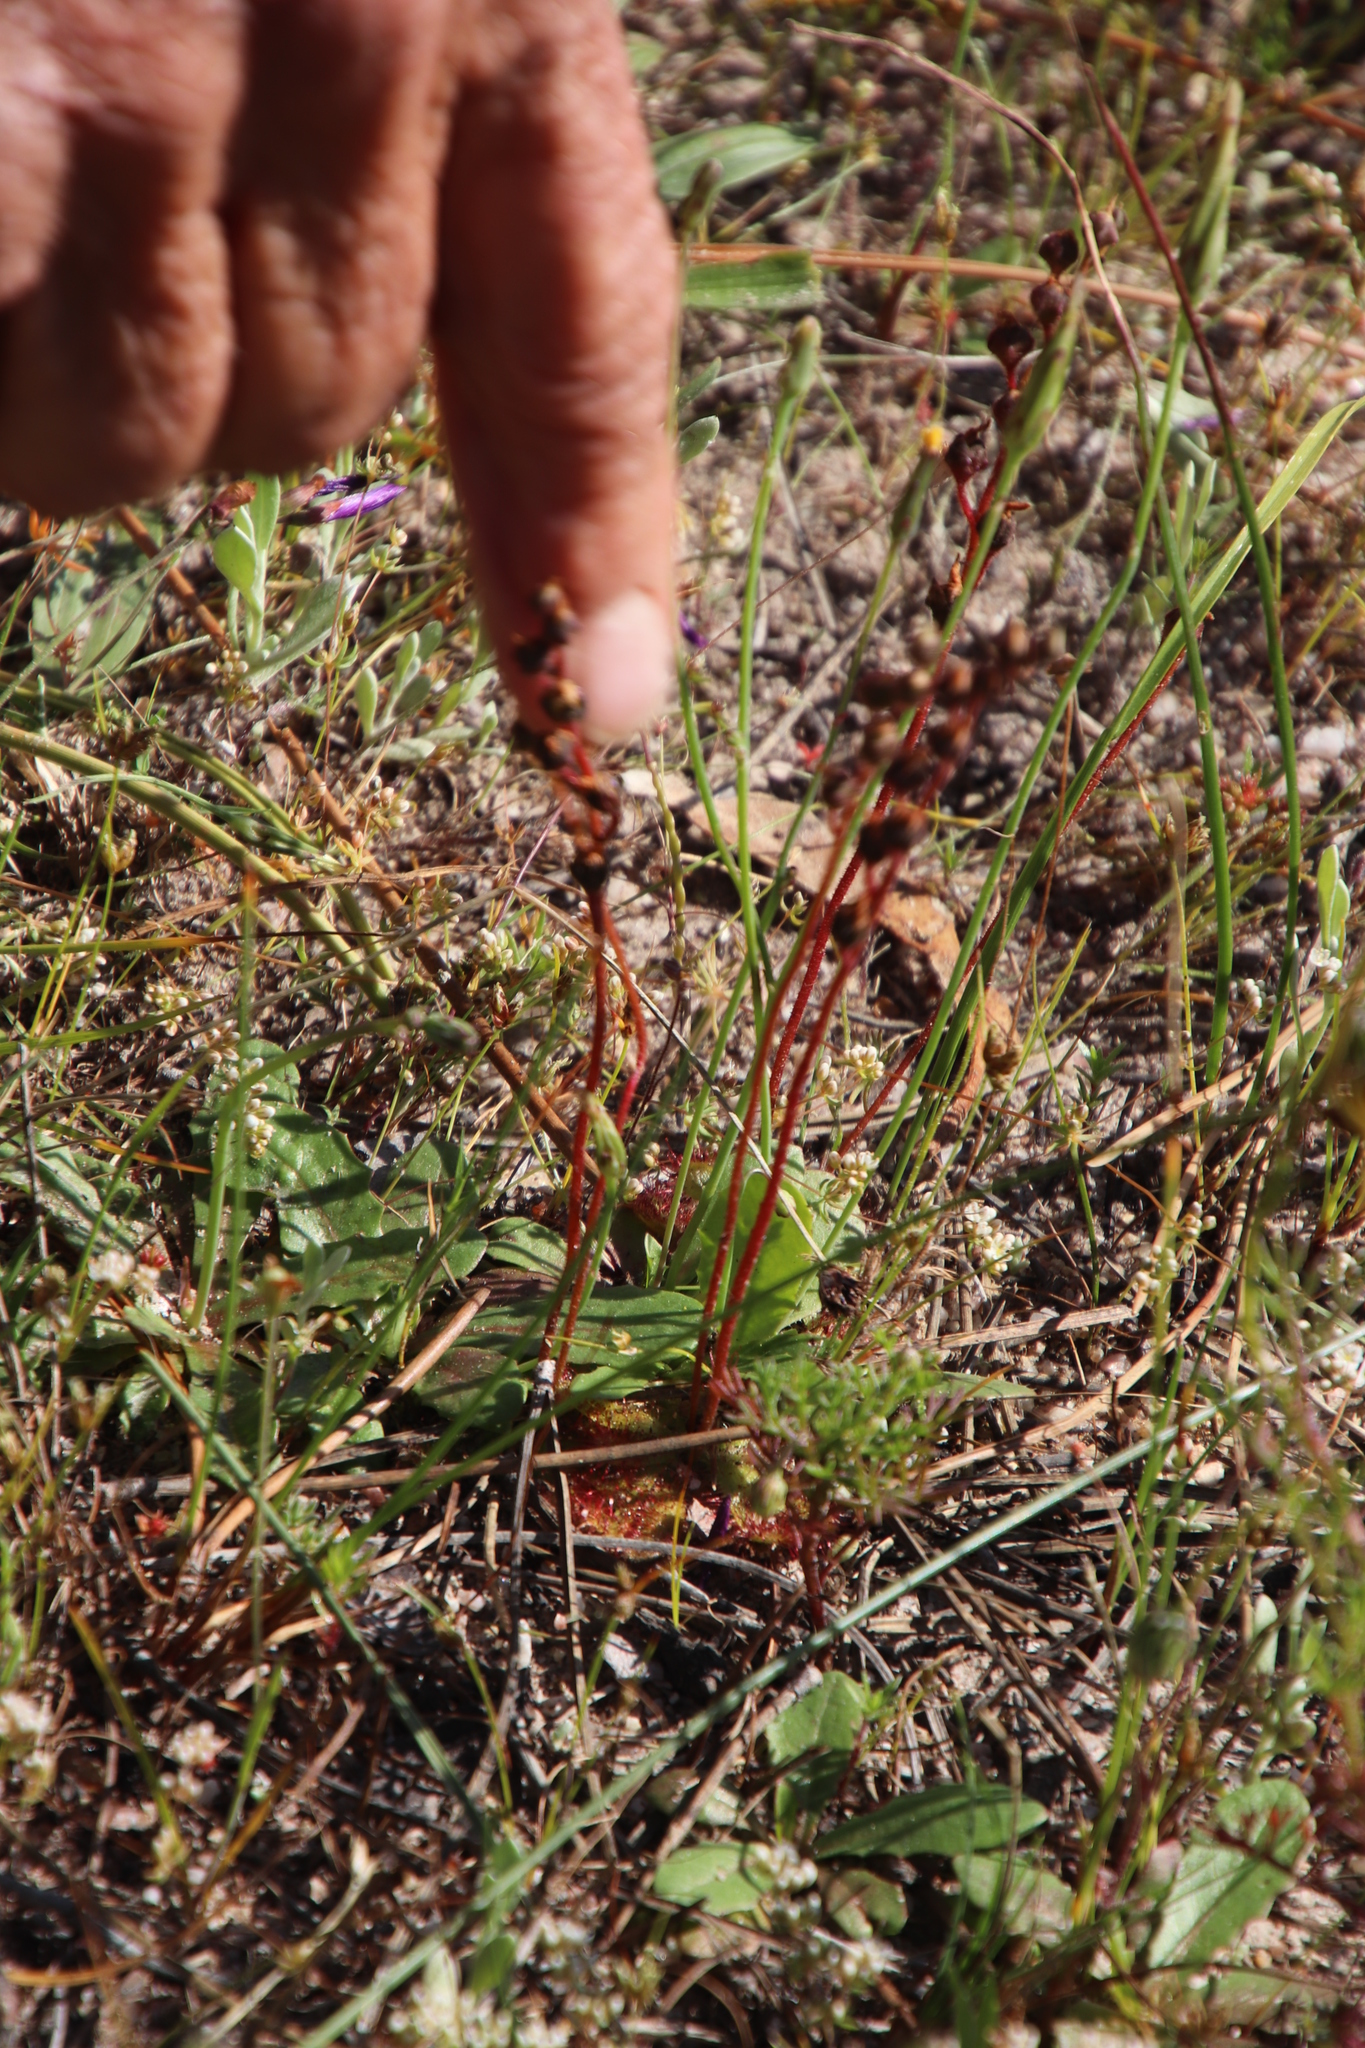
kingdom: Plantae
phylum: Tracheophyta
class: Magnoliopsida
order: Caryophyllales
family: Droseraceae
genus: Drosera
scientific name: Drosera trinervia
